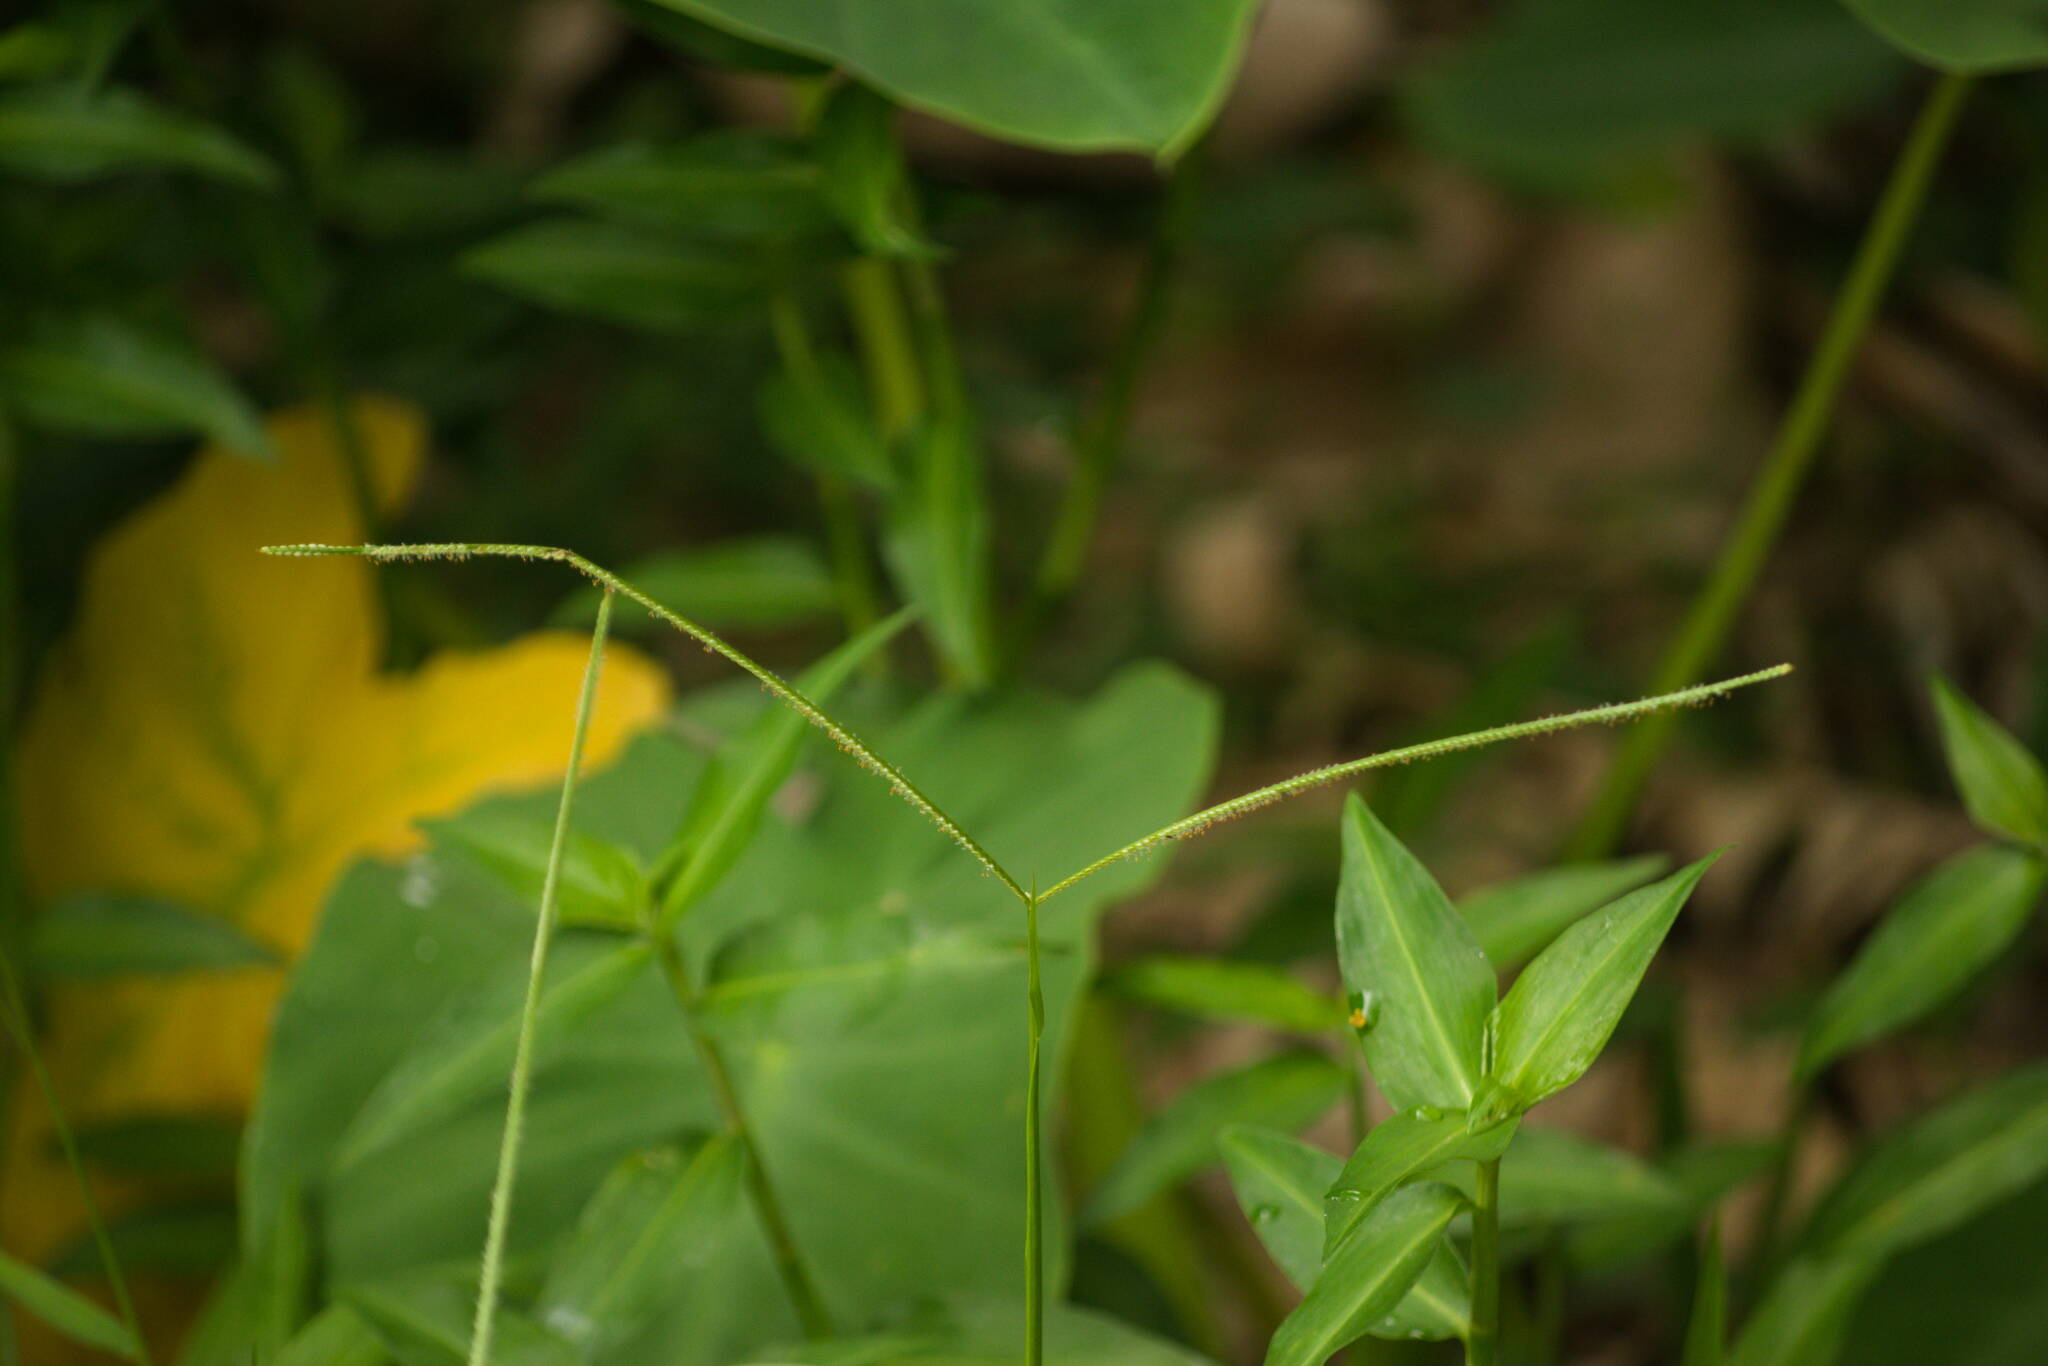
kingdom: Plantae
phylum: Tracheophyta
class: Liliopsida
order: Poales
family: Poaceae
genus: Paspalum
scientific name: Paspalum conjugatum
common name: Hilograss
